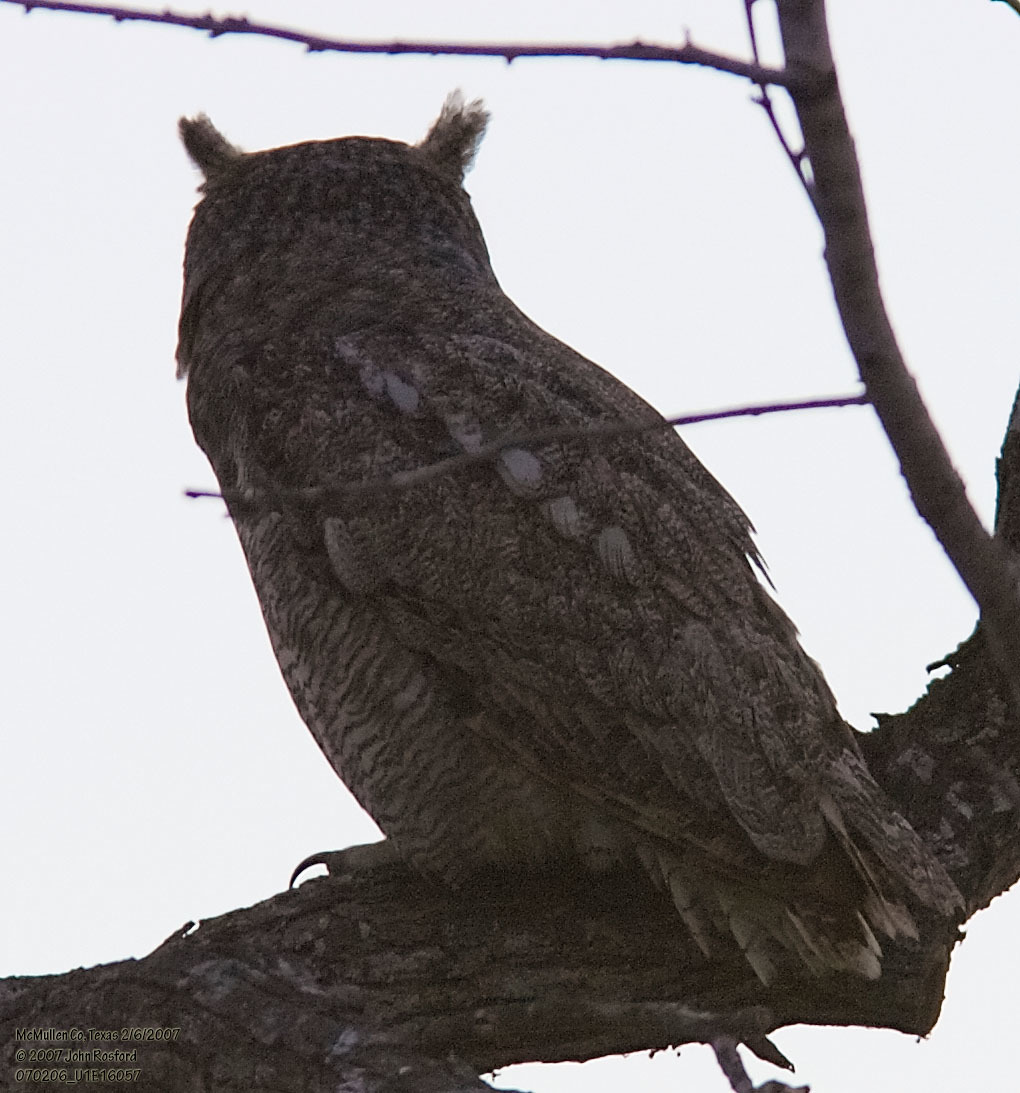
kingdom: Animalia
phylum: Chordata
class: Aves
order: Strigiformes
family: Strigidae
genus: Bubo
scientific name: Bubo virginianus
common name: Great horned owl
